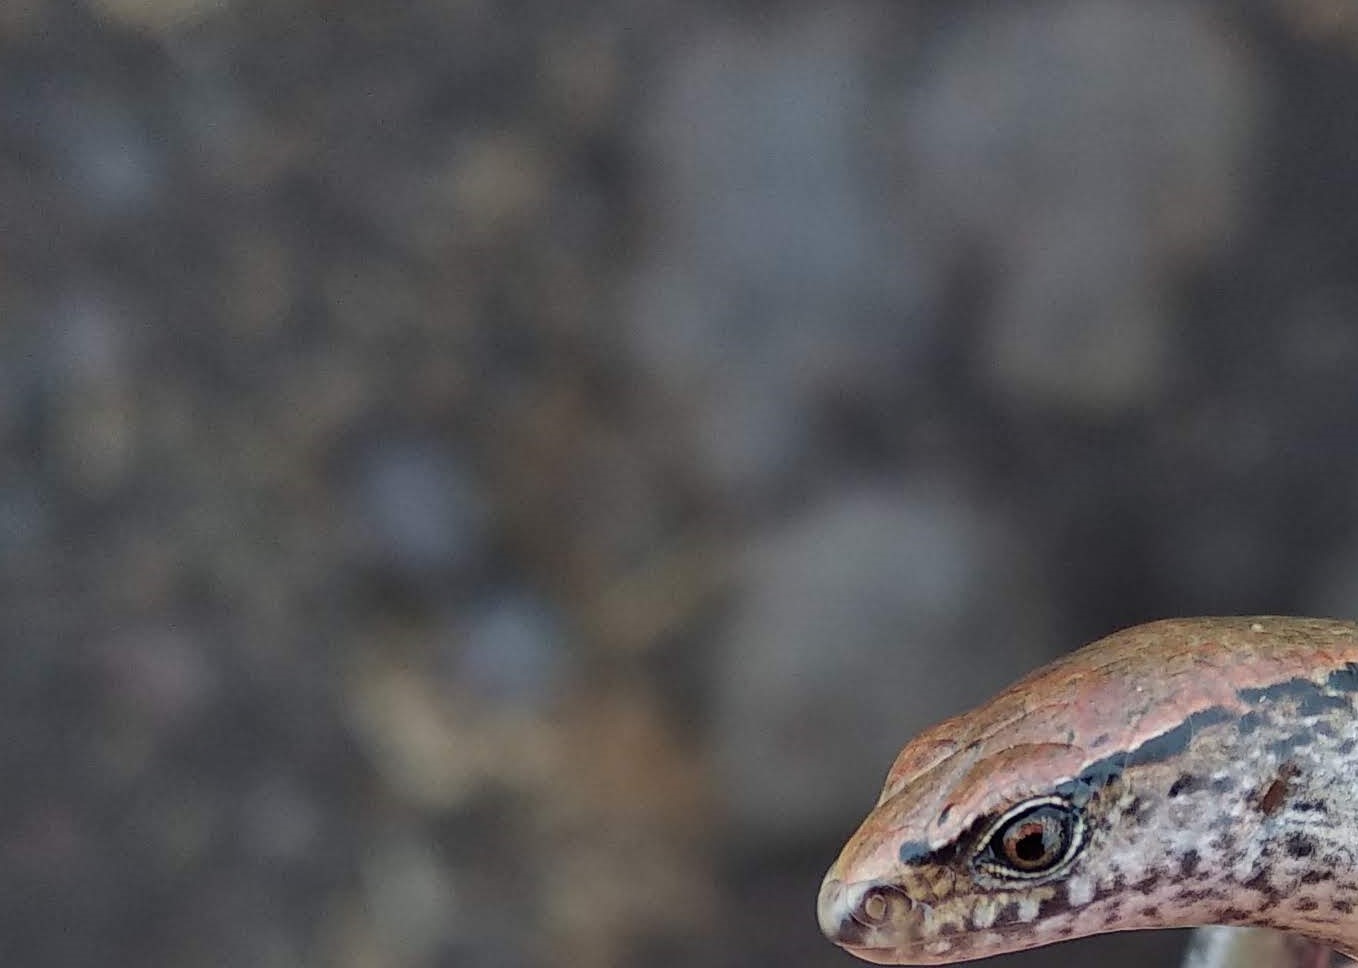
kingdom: Animalia
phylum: Chordata
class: Squamata
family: Scincidae
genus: Oligosoma
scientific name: Oligosoma aeneum
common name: Copper skink
